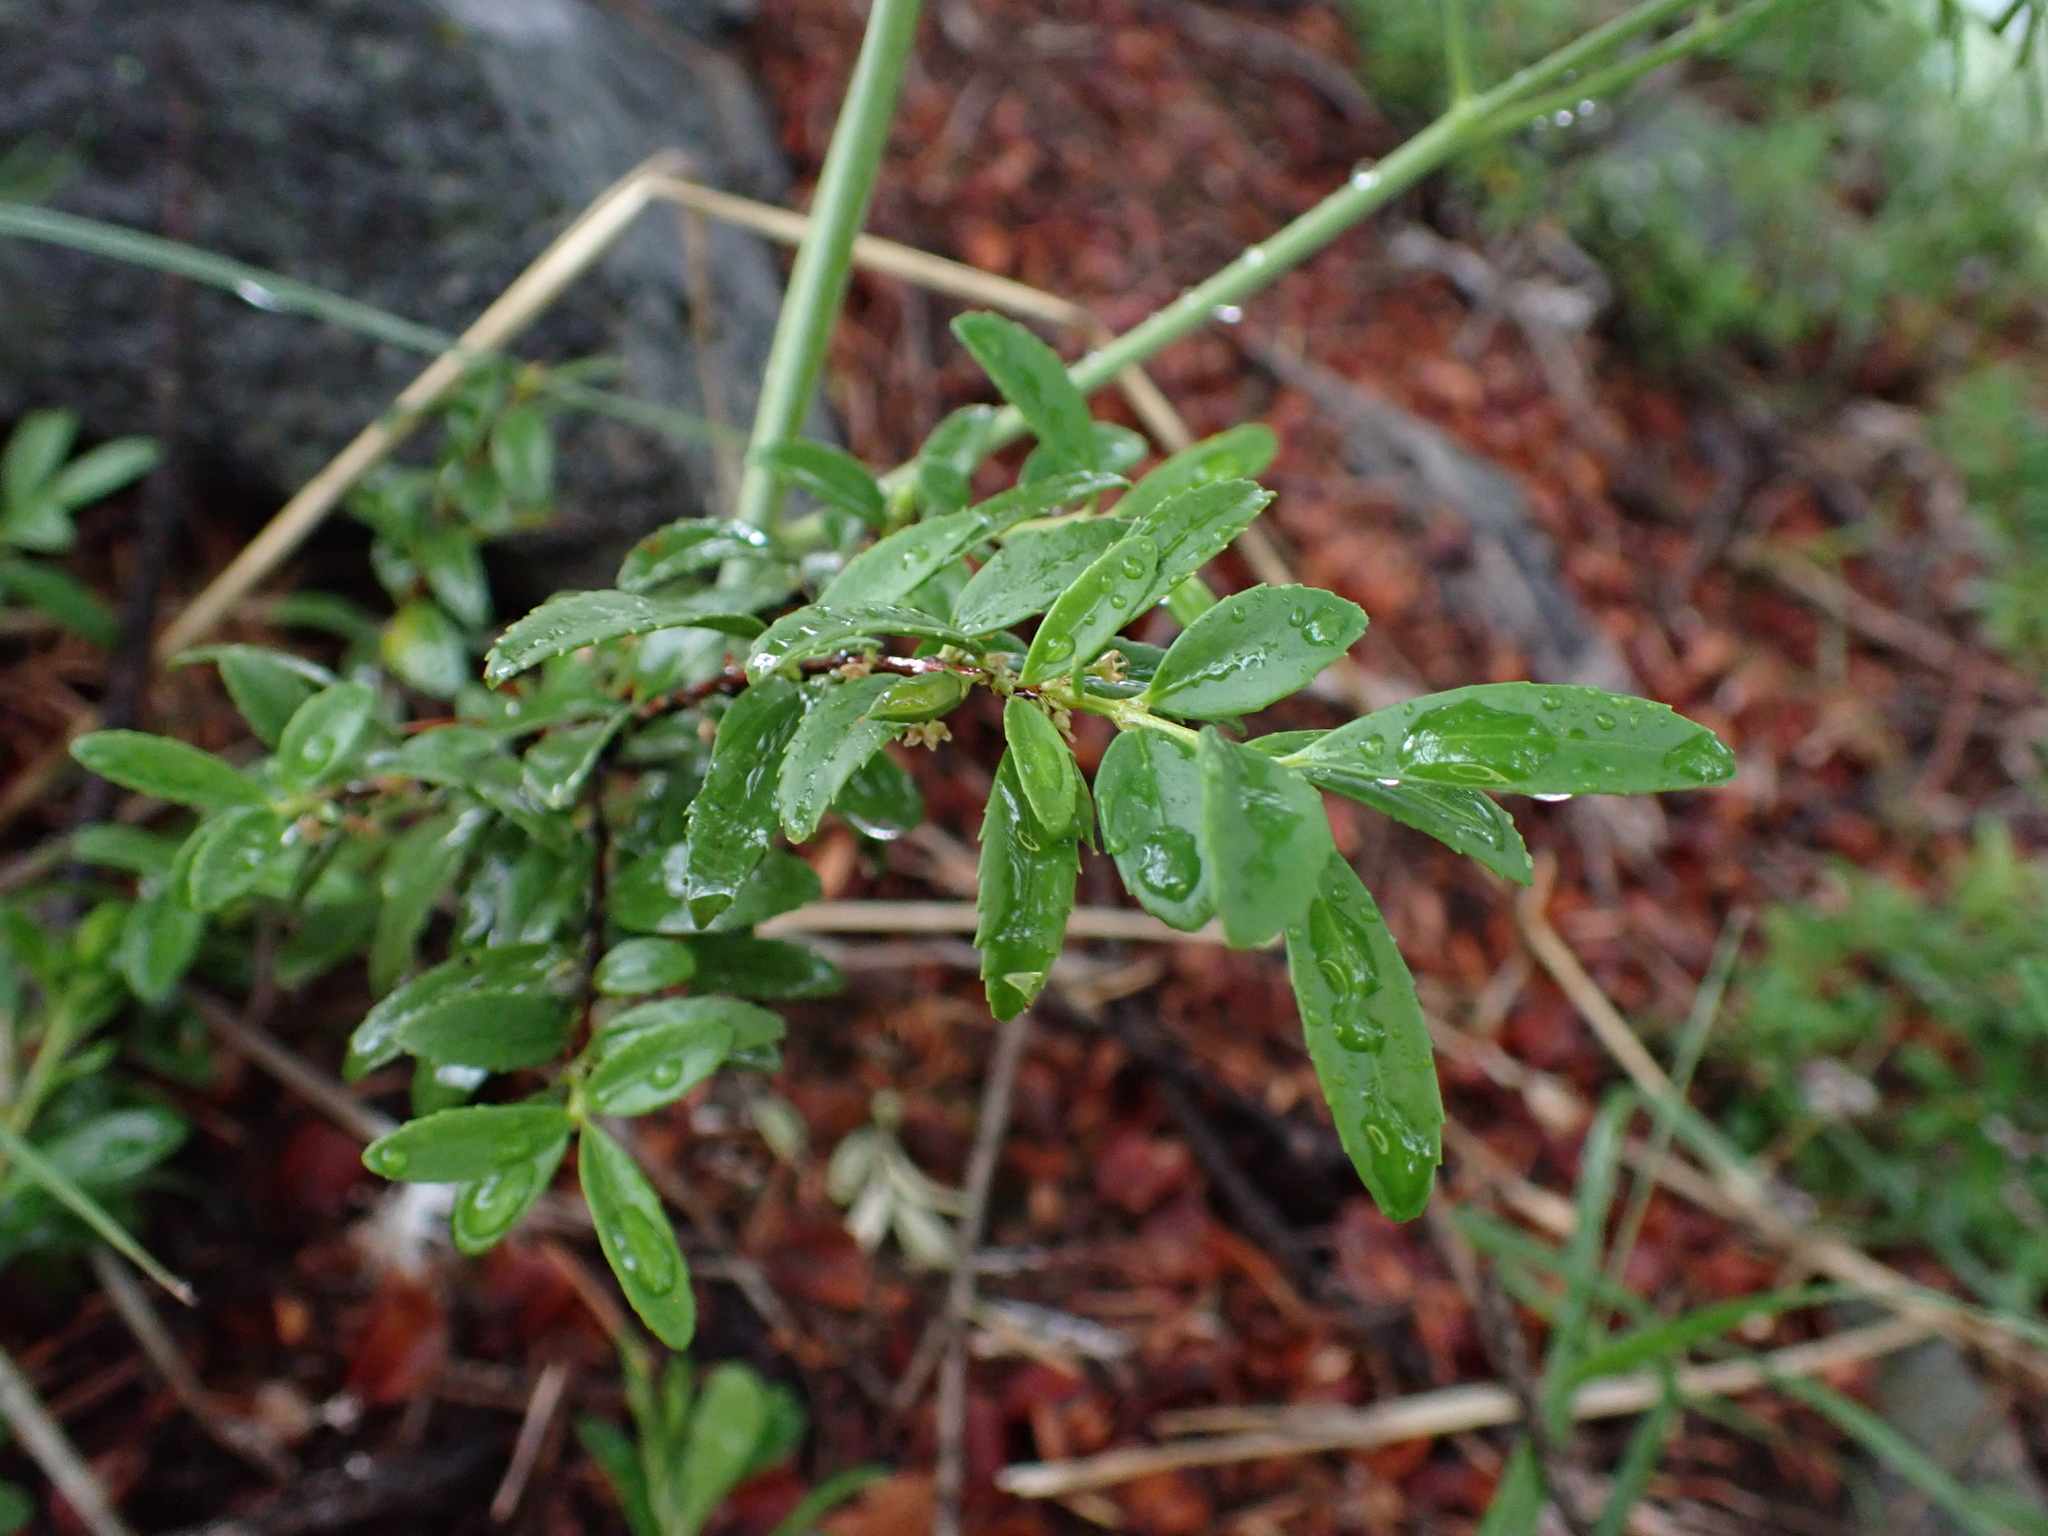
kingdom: Plantae
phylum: Tracheophyta
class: Magnoliopsida
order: Celastrales
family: Celastraceae
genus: Paxistima
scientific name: Paxistima myrsinites
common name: Mountain-lover
